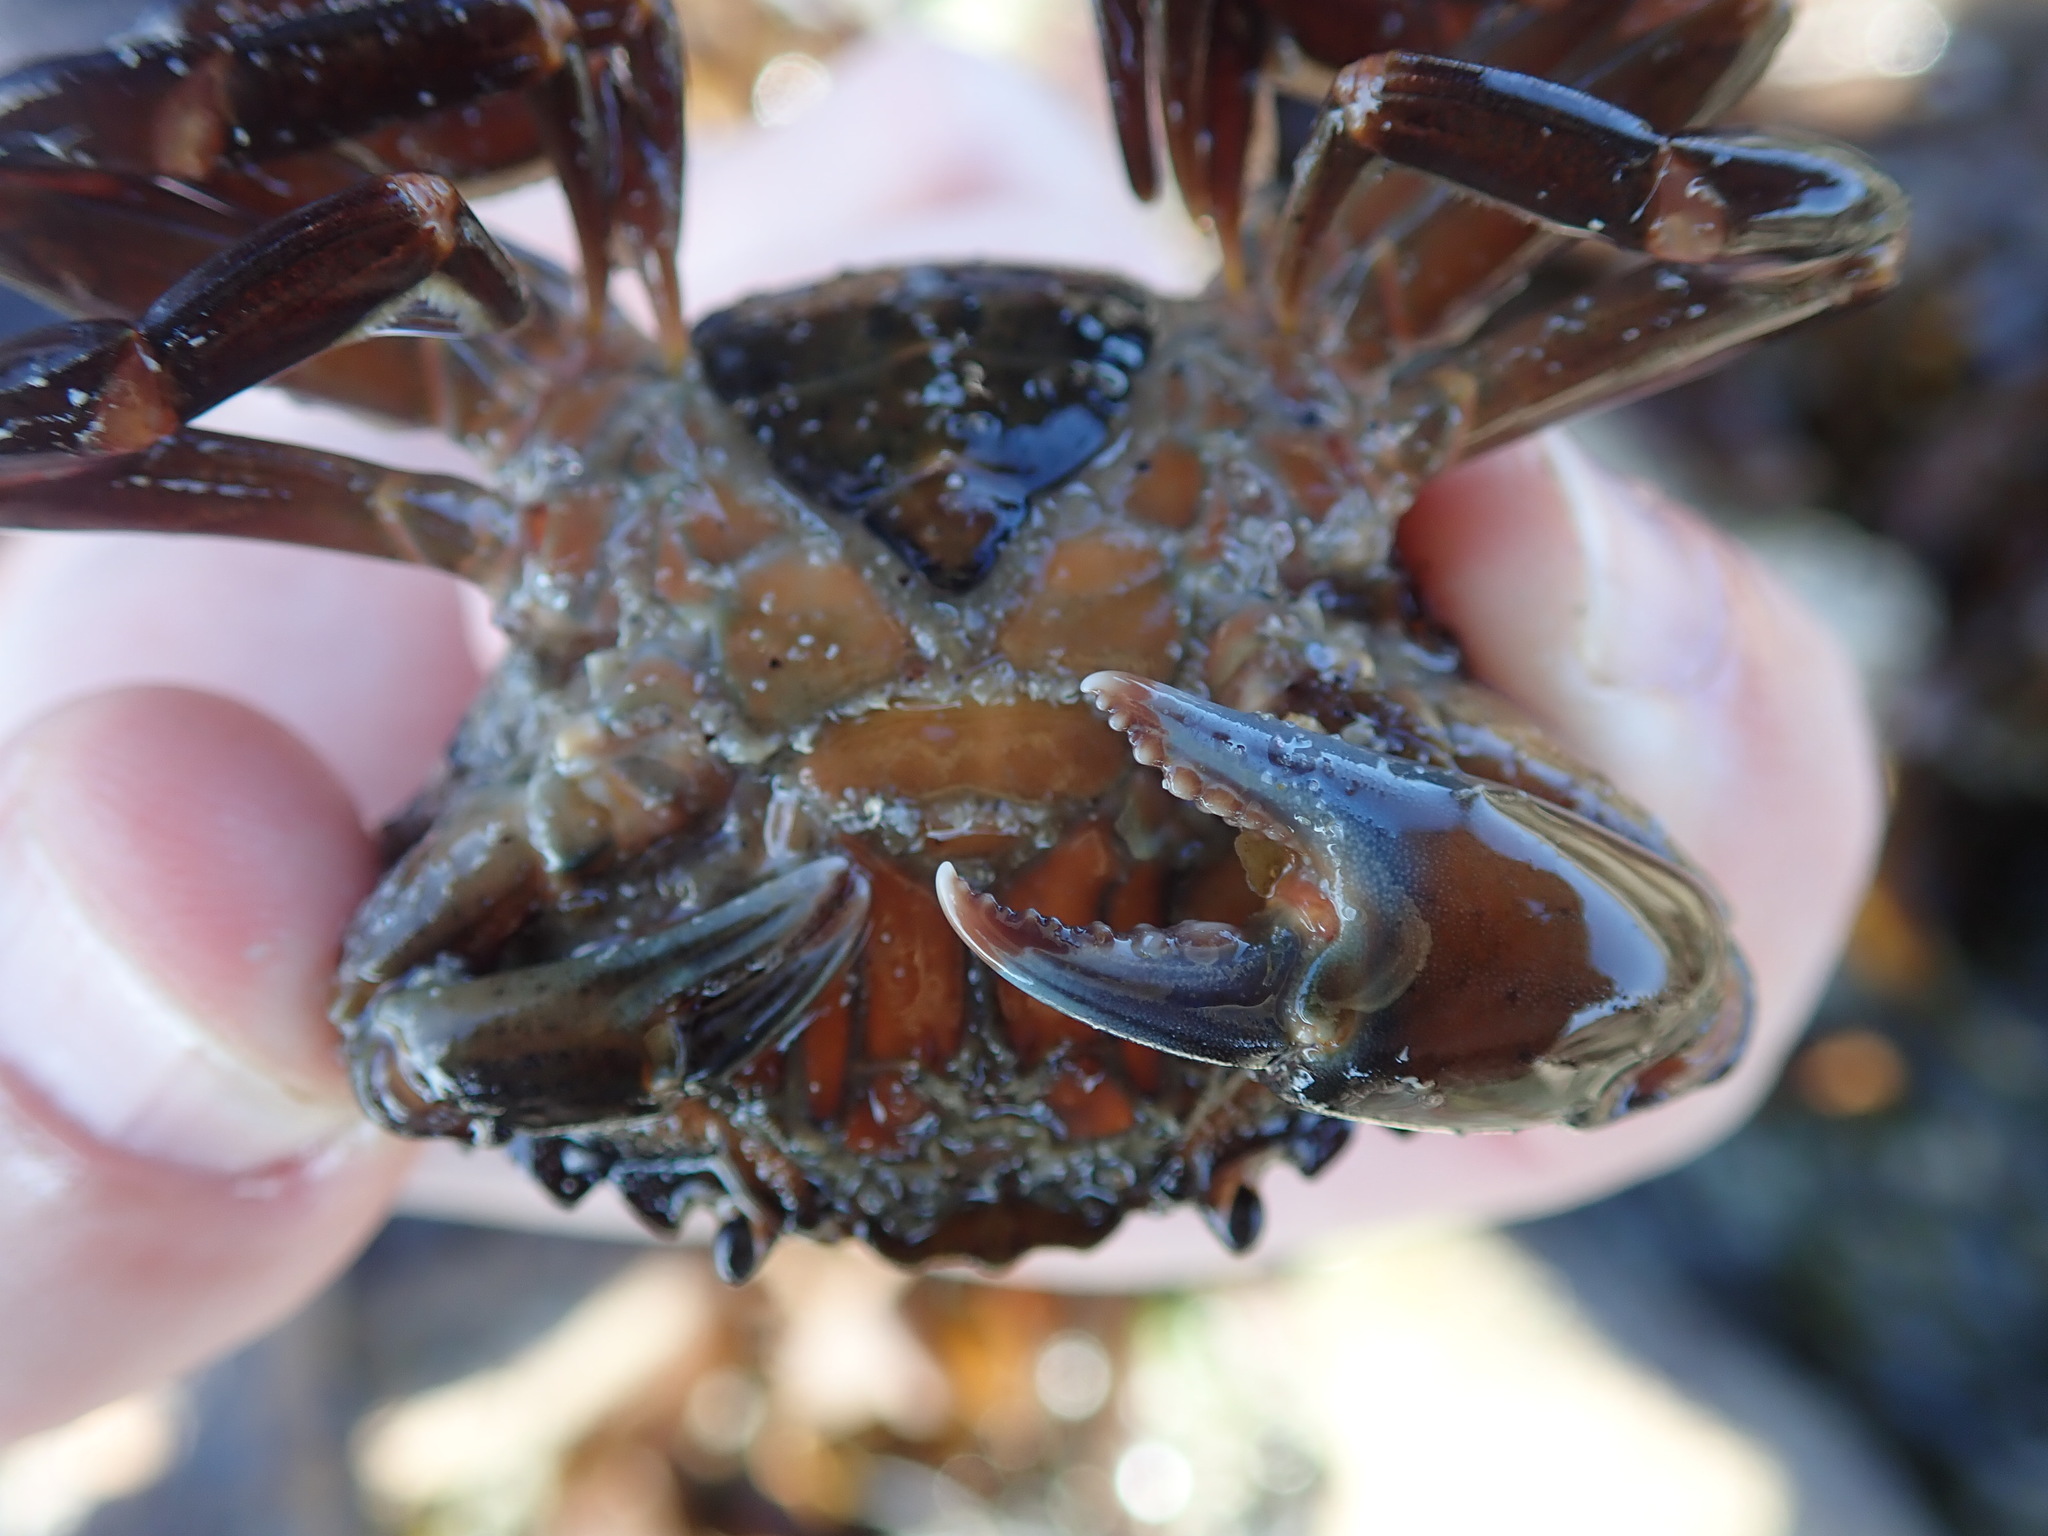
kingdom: Animalia
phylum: Arthropoda
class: Malacostraca
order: Decapoda
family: Carcinidae
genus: Carcinus
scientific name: Carcinus maenas
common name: European green crab
